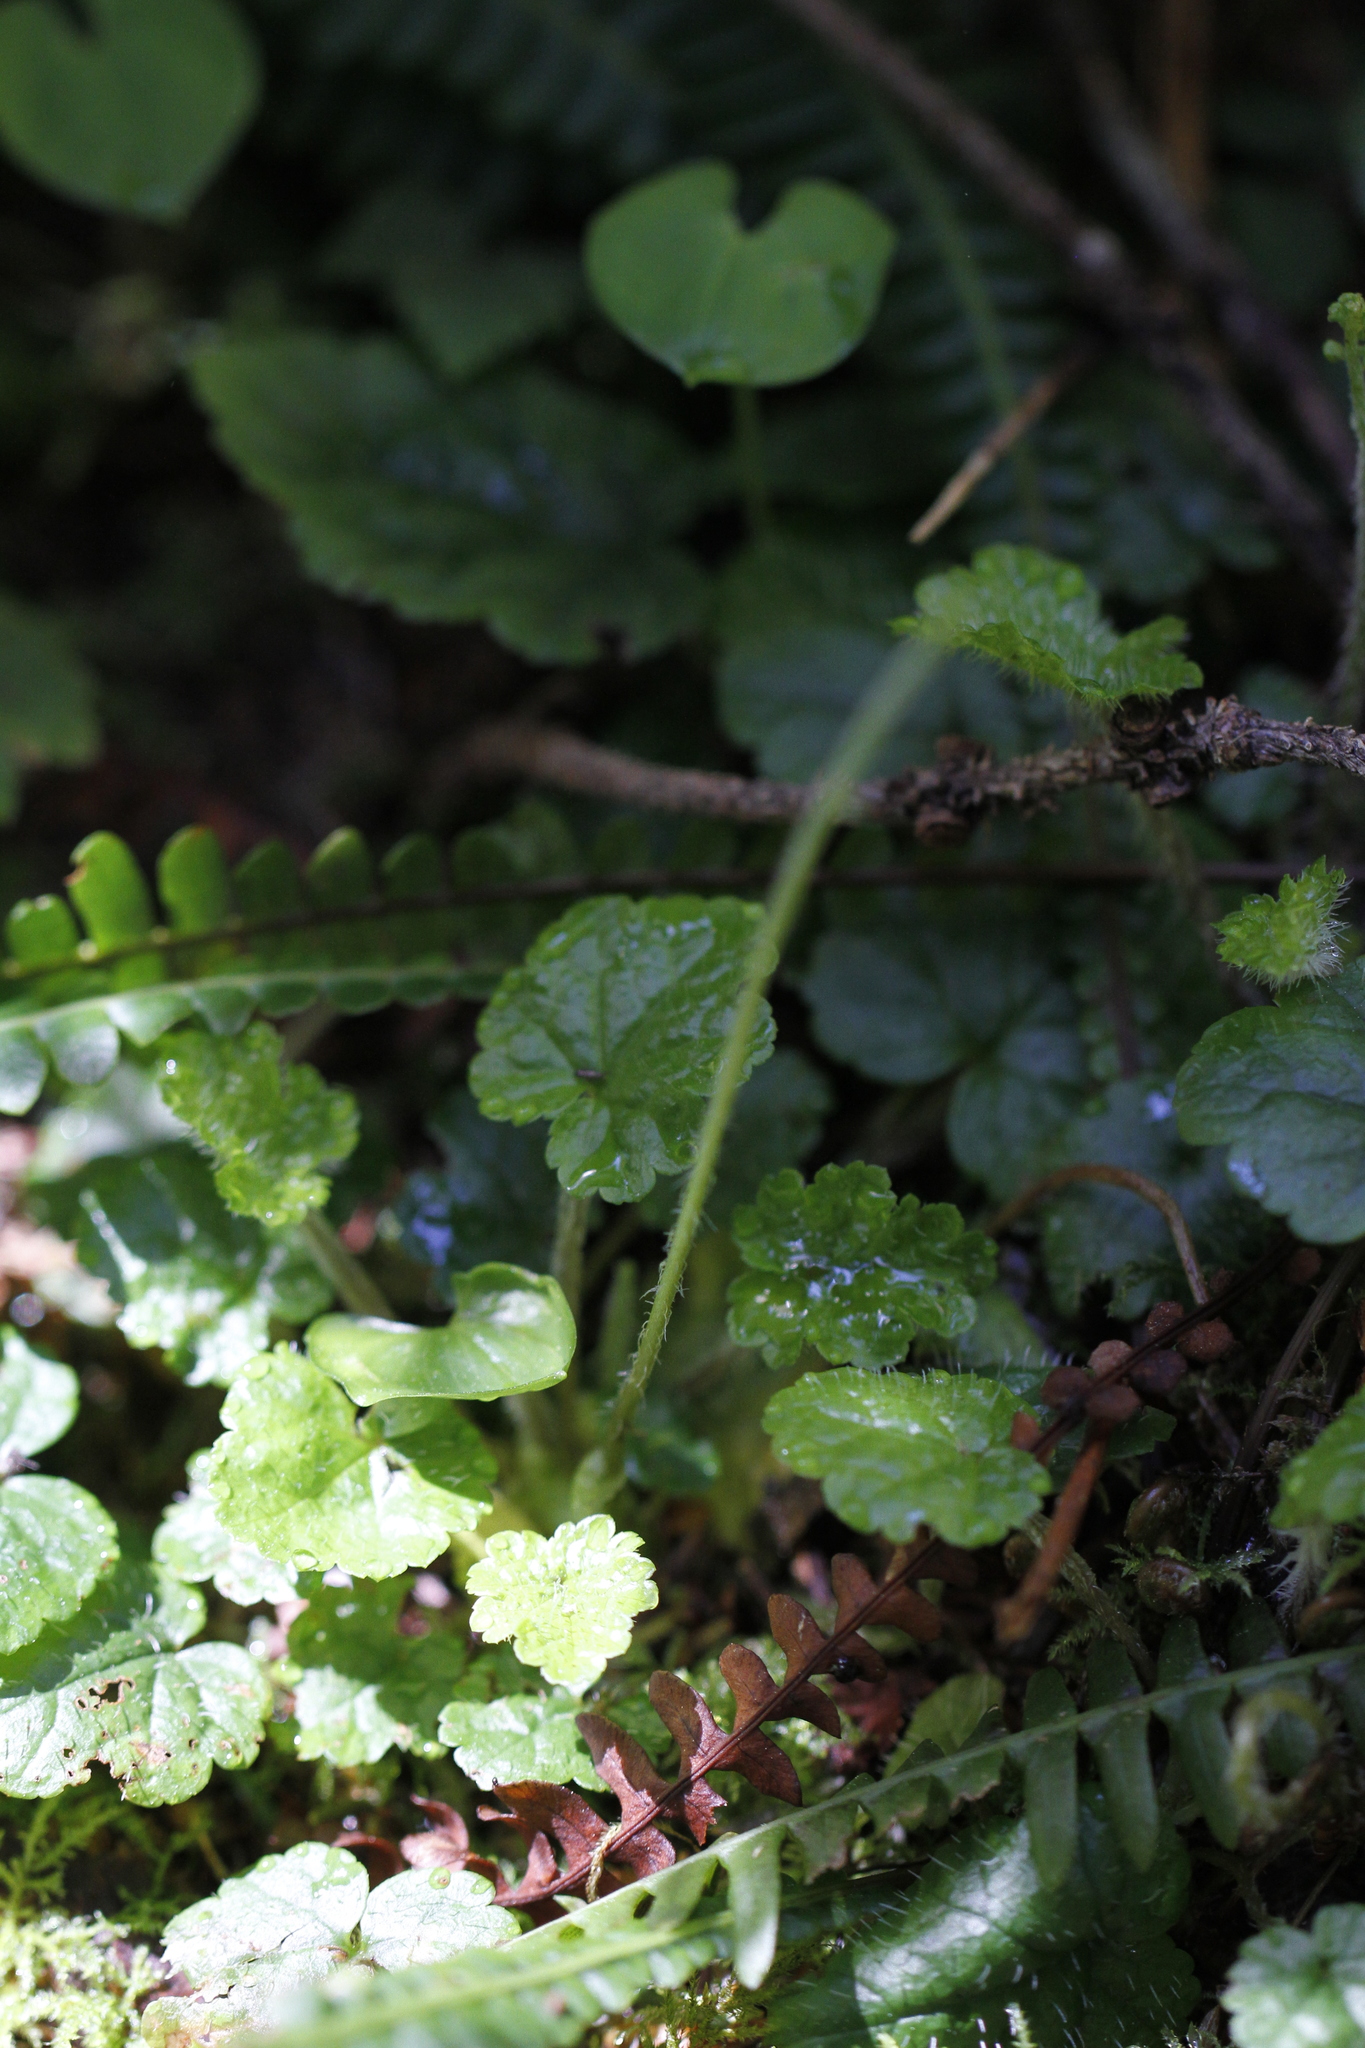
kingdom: Plantae
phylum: Tracheophyta
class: Magnoliopsida
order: Saxifragales
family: Saxifragaceae
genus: Brewerimitella
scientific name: Brewerimitella ovalis
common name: Coastal bishop's-cap
